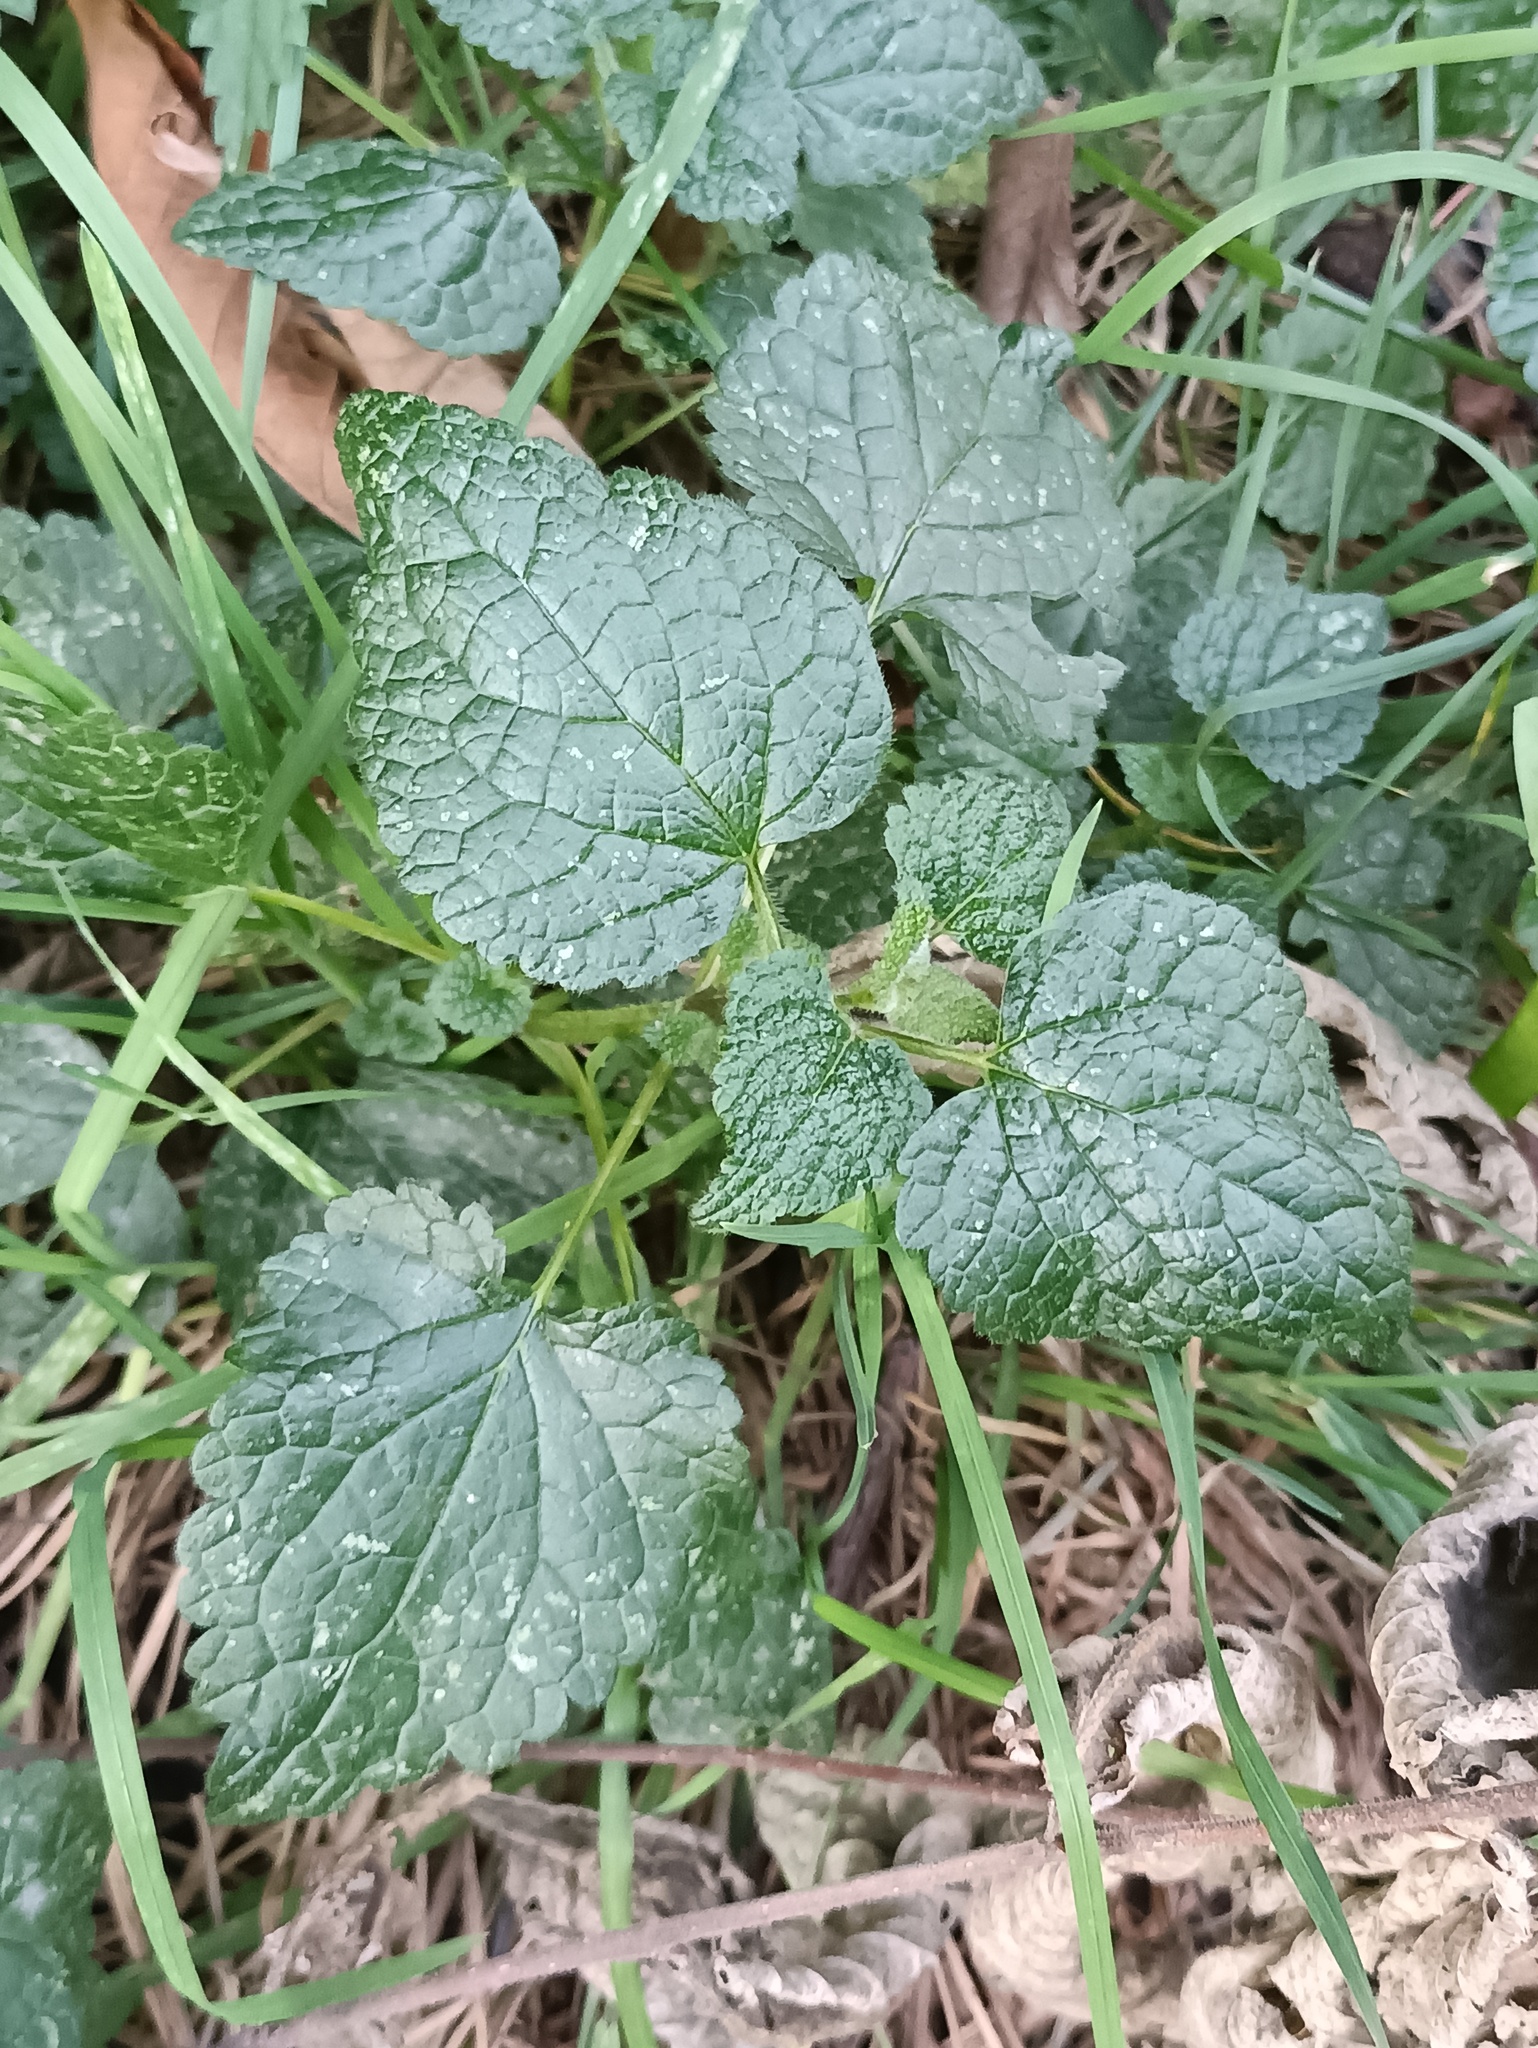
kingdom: Plantae
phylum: Tracheophyta
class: Magnoliopsida
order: Lamiales
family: Lamiaceae
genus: Lamium
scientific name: Lamium maculatum
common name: Spotted dead-nettle
